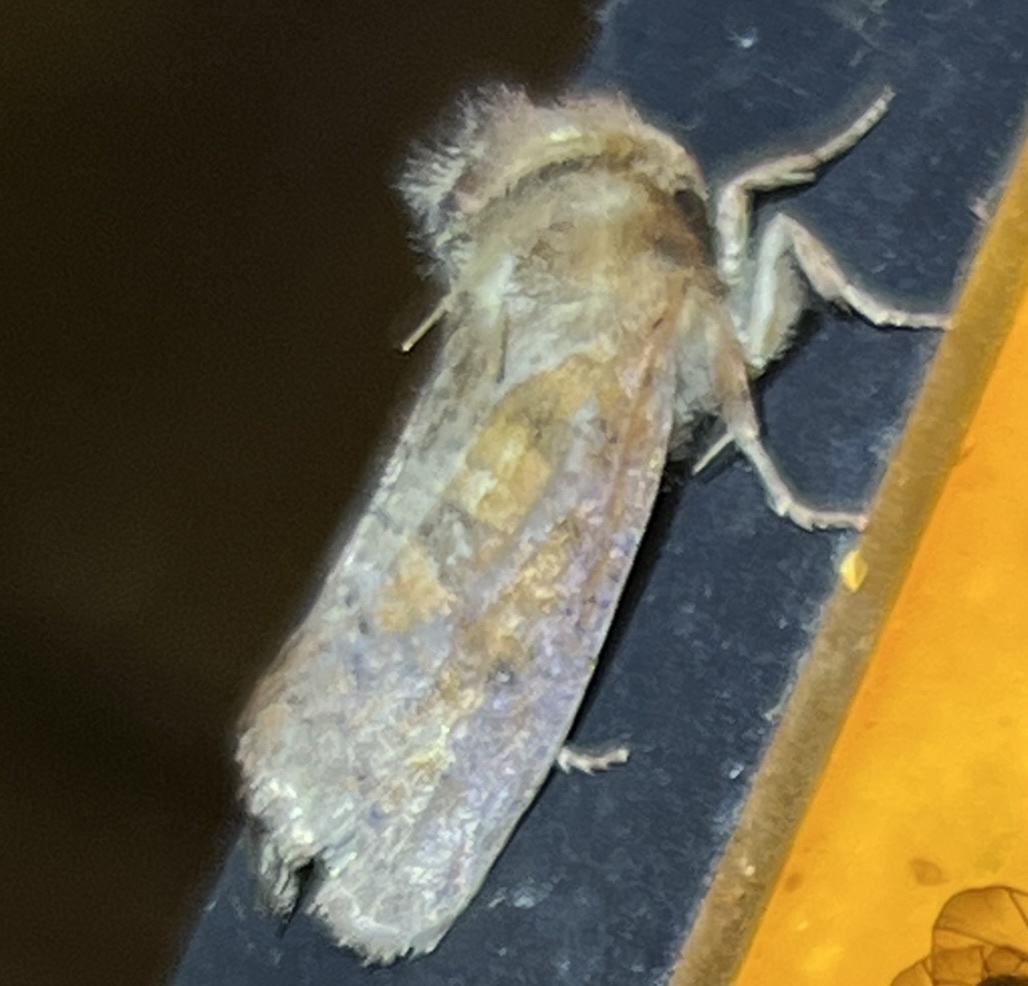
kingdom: Animalia
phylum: Arthropoda
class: Insecta
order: Lepidoptera
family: Tineidae
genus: Acrolophus
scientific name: Acrolophus plumifrontella
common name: Eastern grass tubeworm moth
